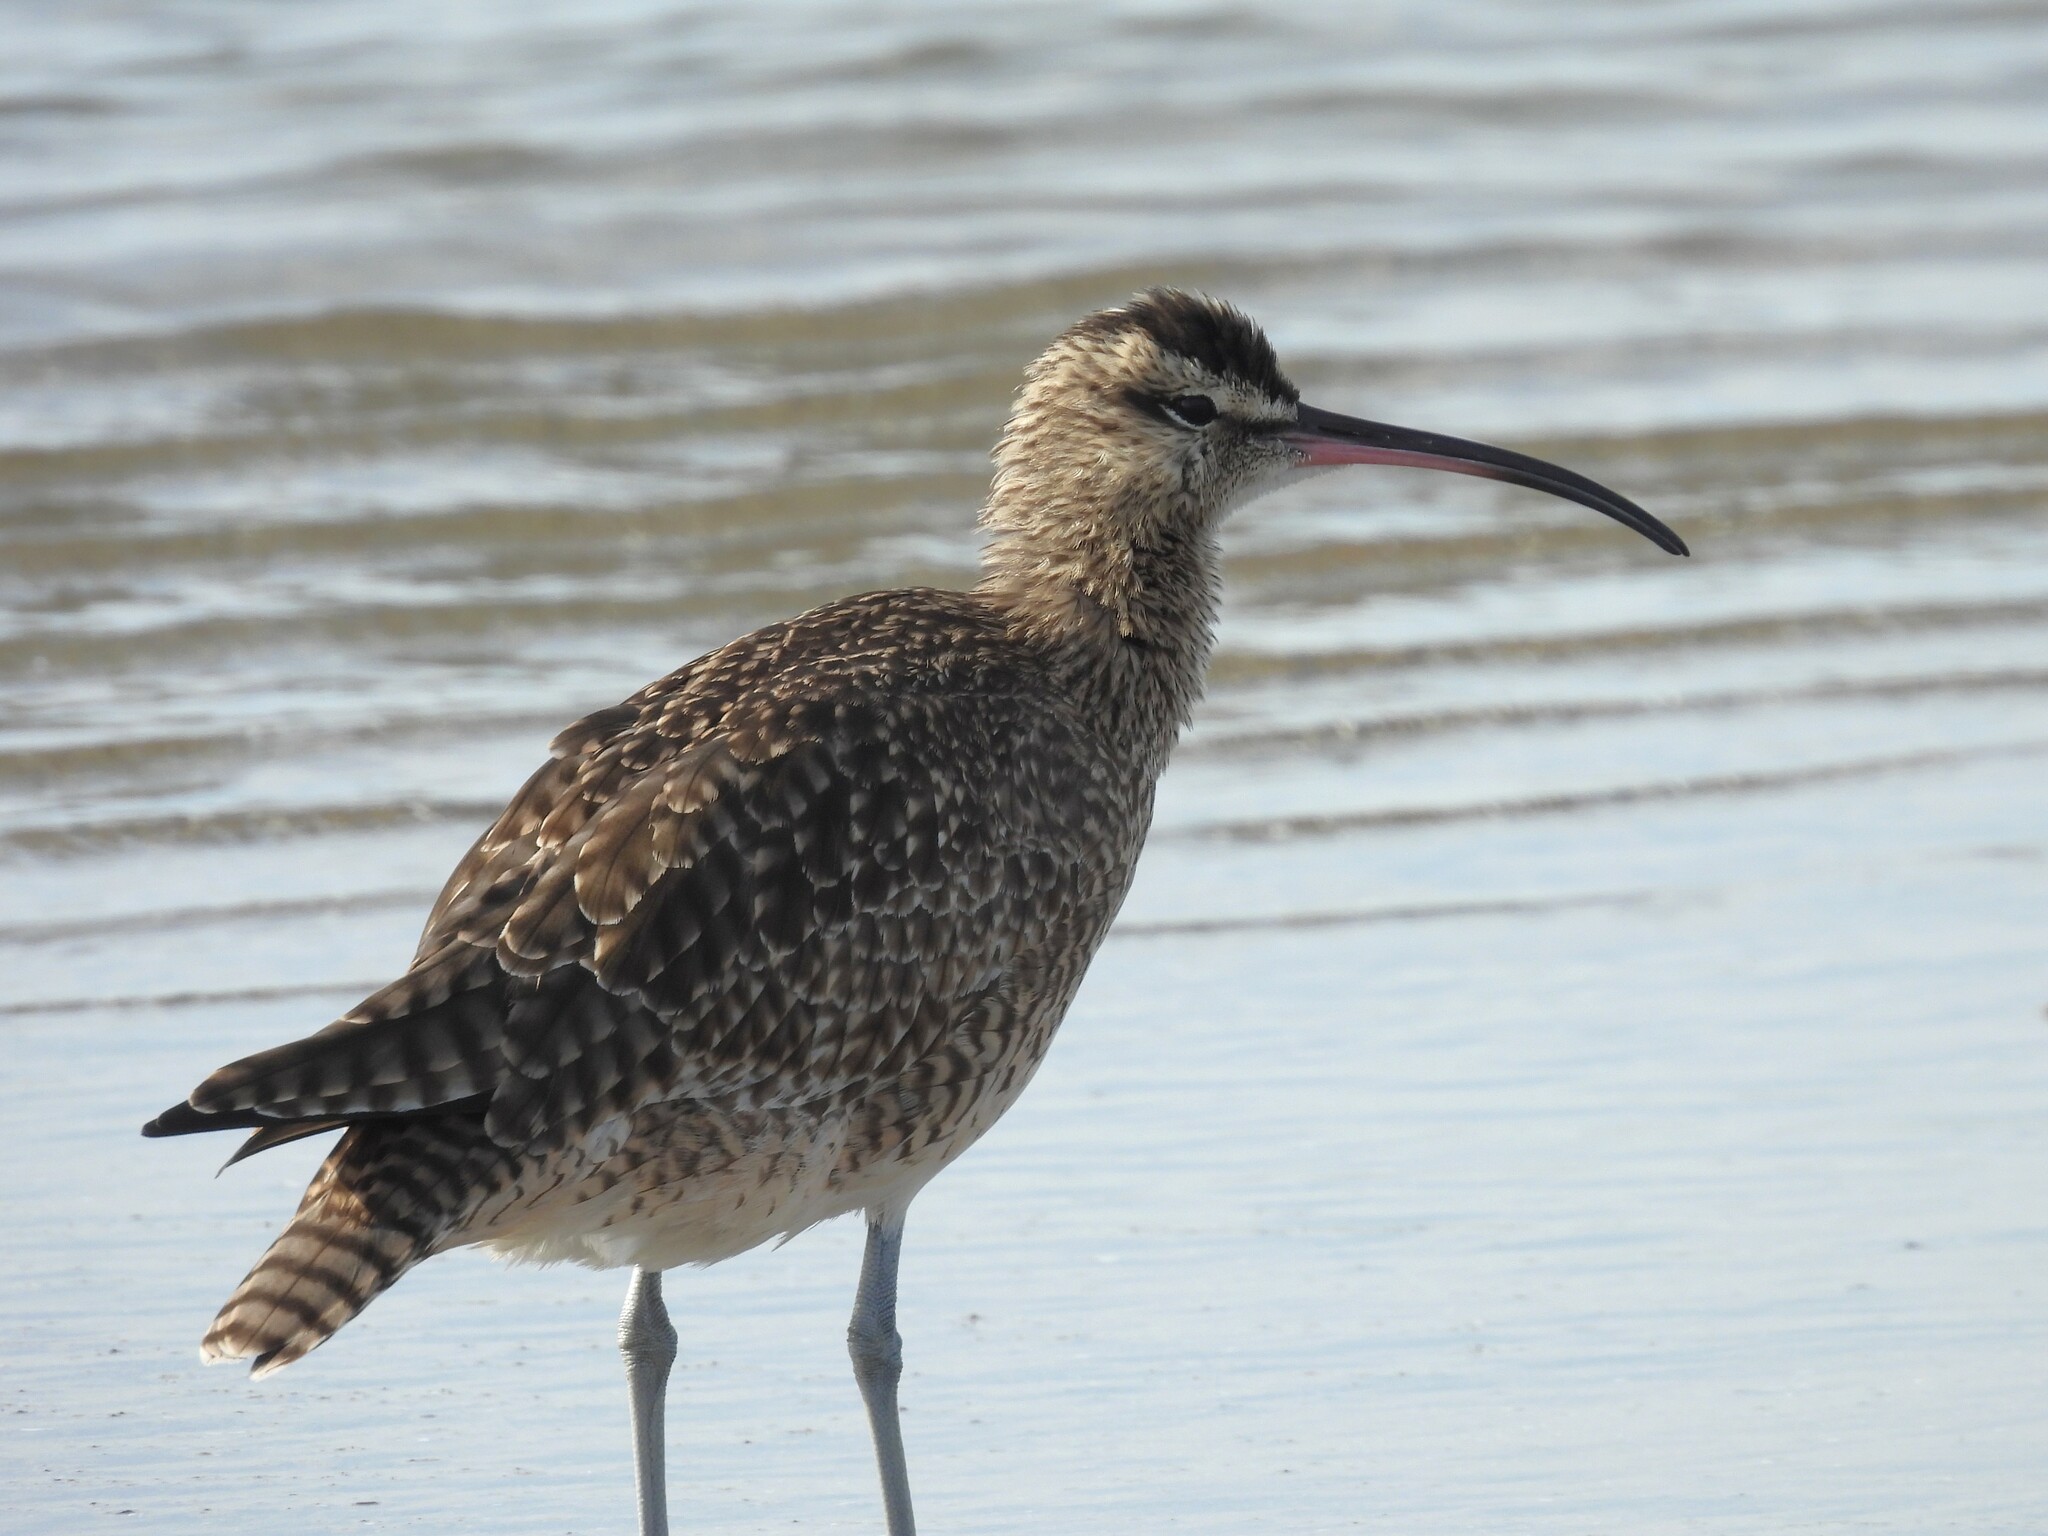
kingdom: Animalia
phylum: Chordata
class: Aves
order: Charadriiformes
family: Scolopacidae
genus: Numenius
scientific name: Numenius phaeopus
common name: Whimbrel
